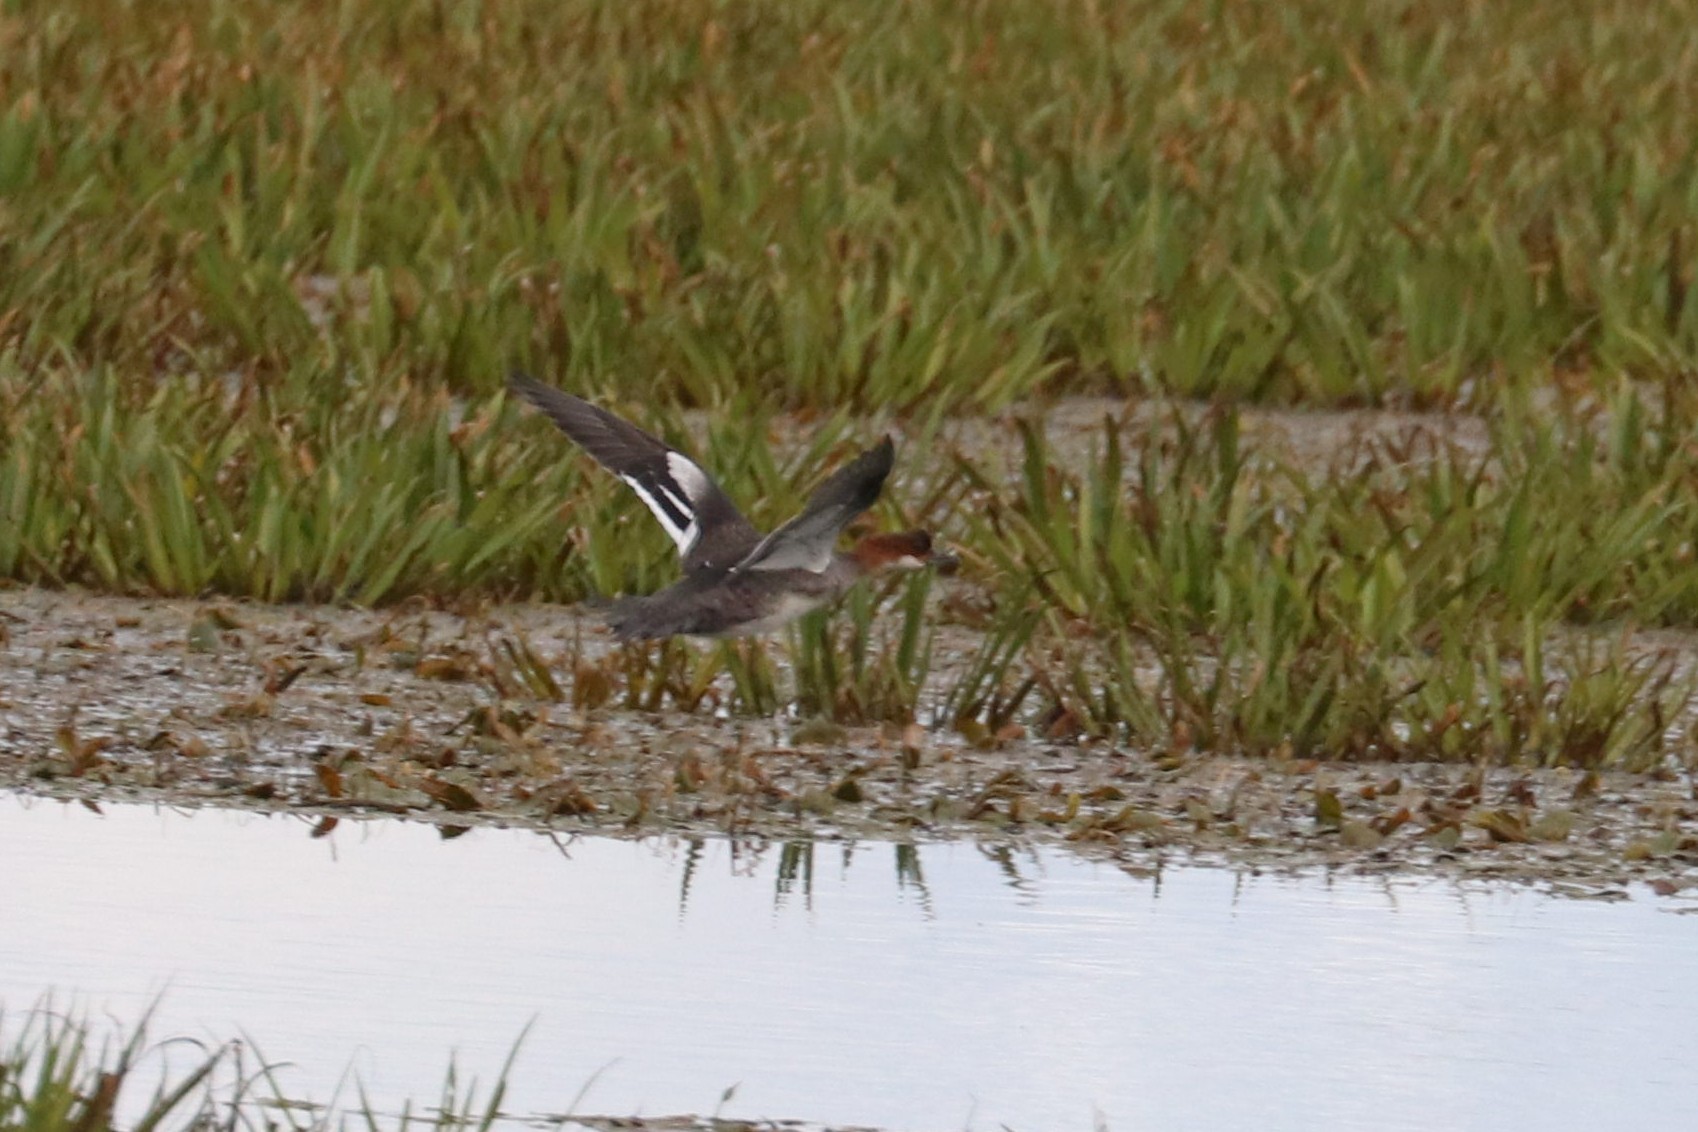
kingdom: Animalia
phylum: Chordata
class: Aves
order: Anseriformes
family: Anatidae
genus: Mergellus
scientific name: Mergellus albellus
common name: Smew
